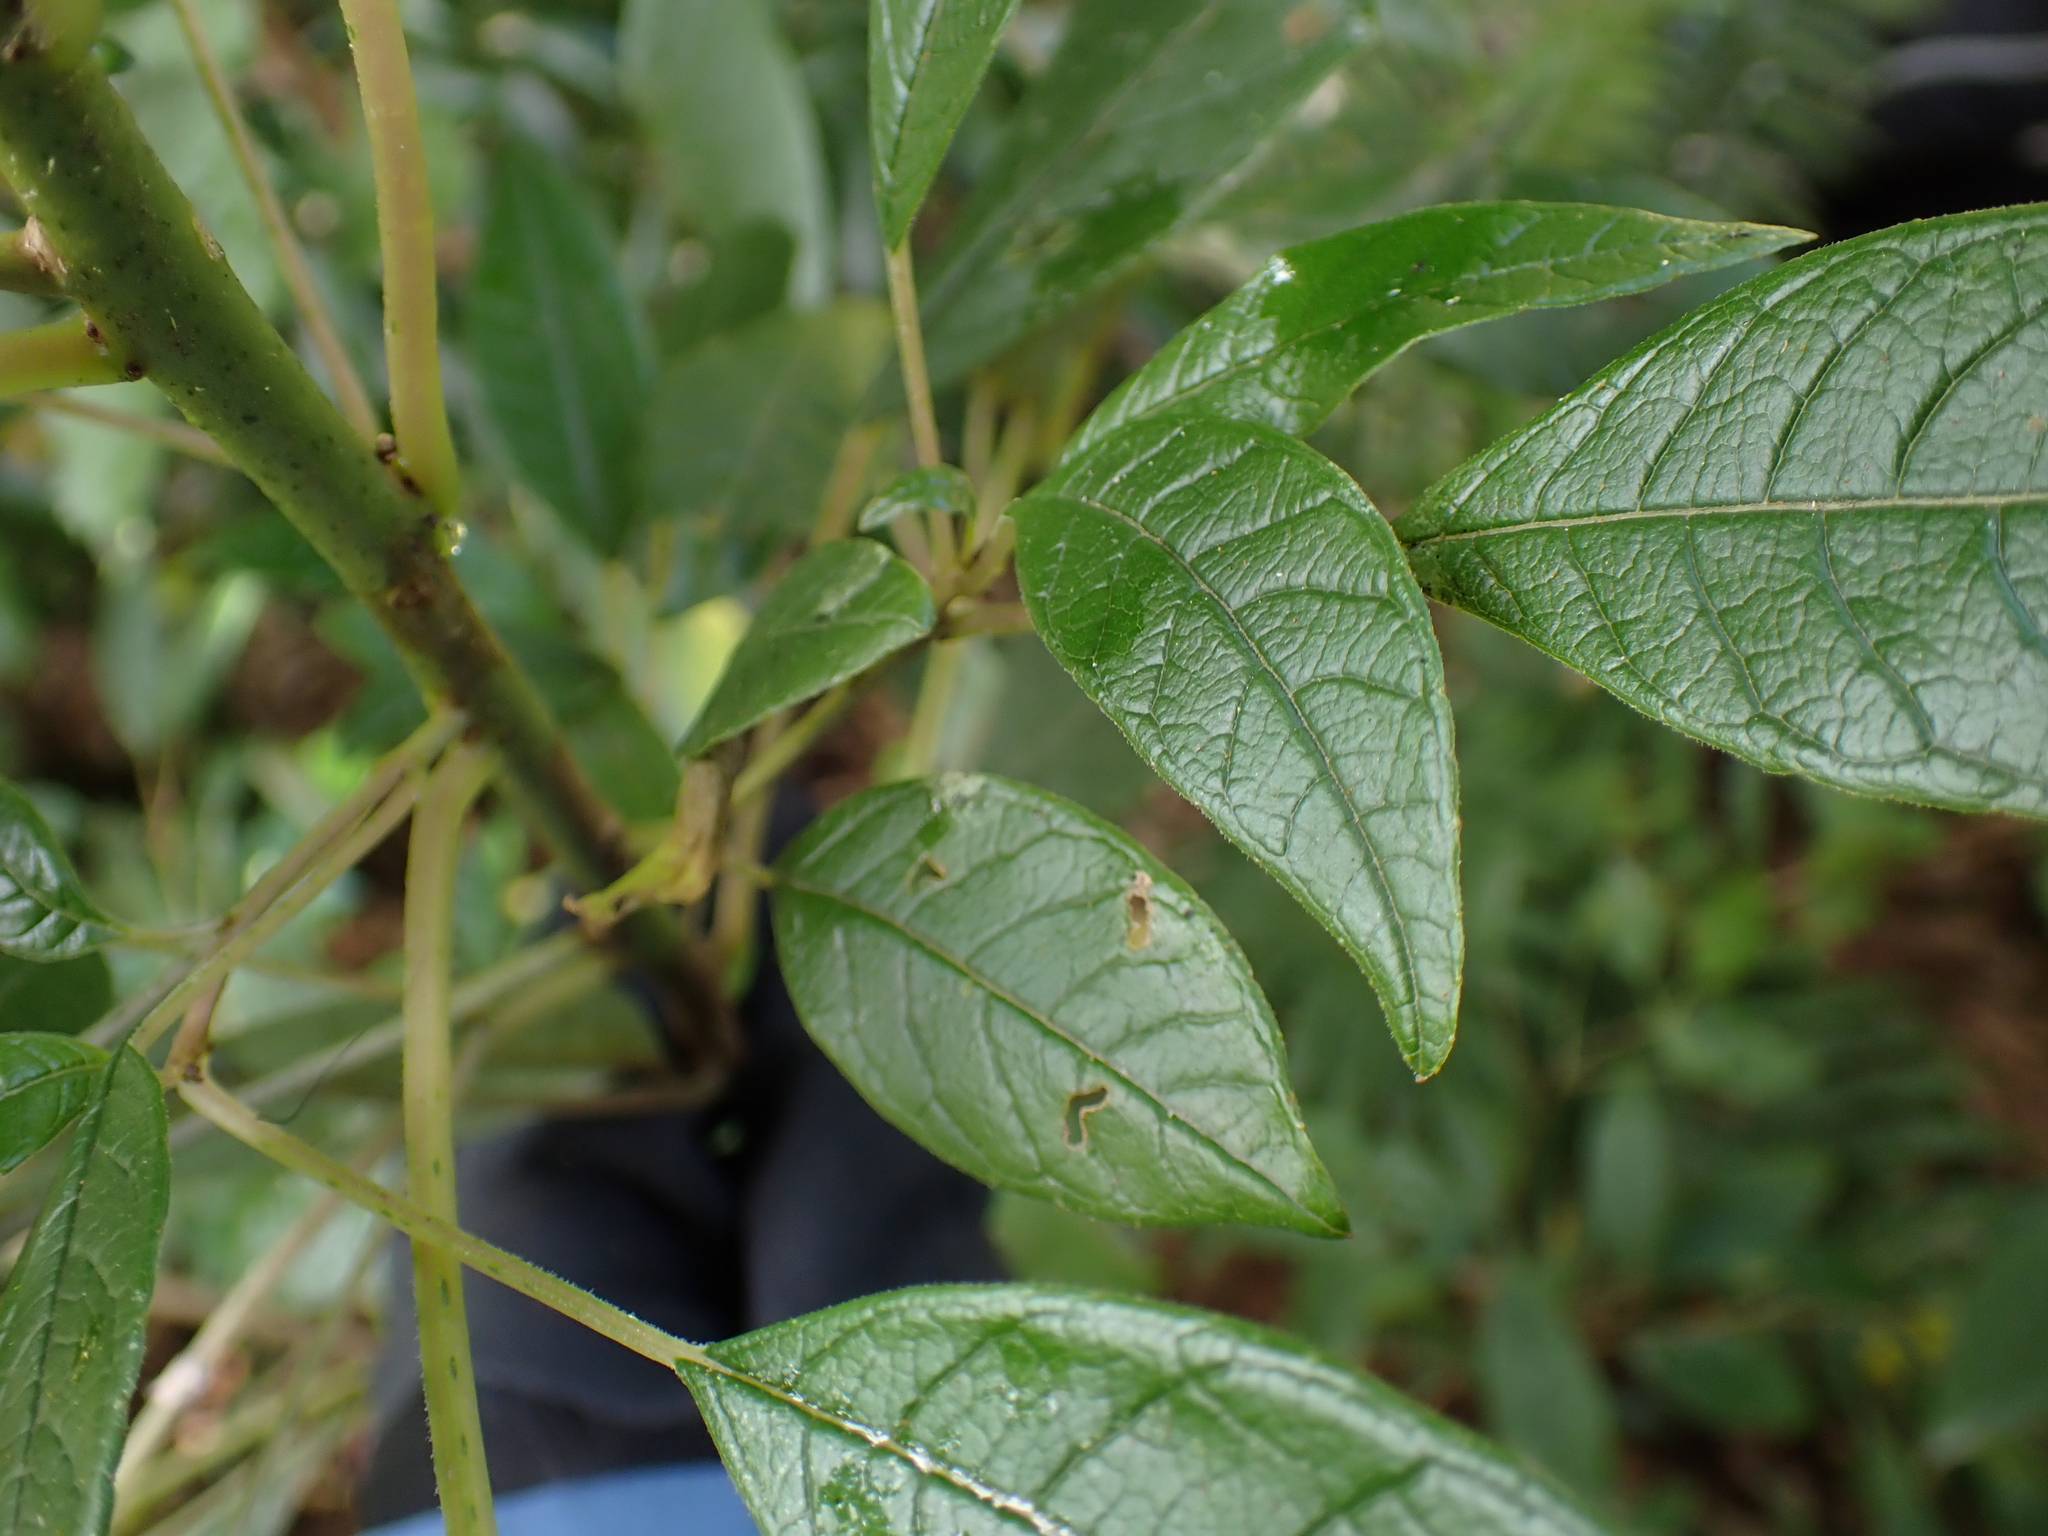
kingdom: Plantae
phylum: Tracheophyta
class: Magnoliopsida
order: Myrtales
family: Onagraceae
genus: Fuchsia
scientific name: Fuchsia excorticata
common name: Tree fuchsia
